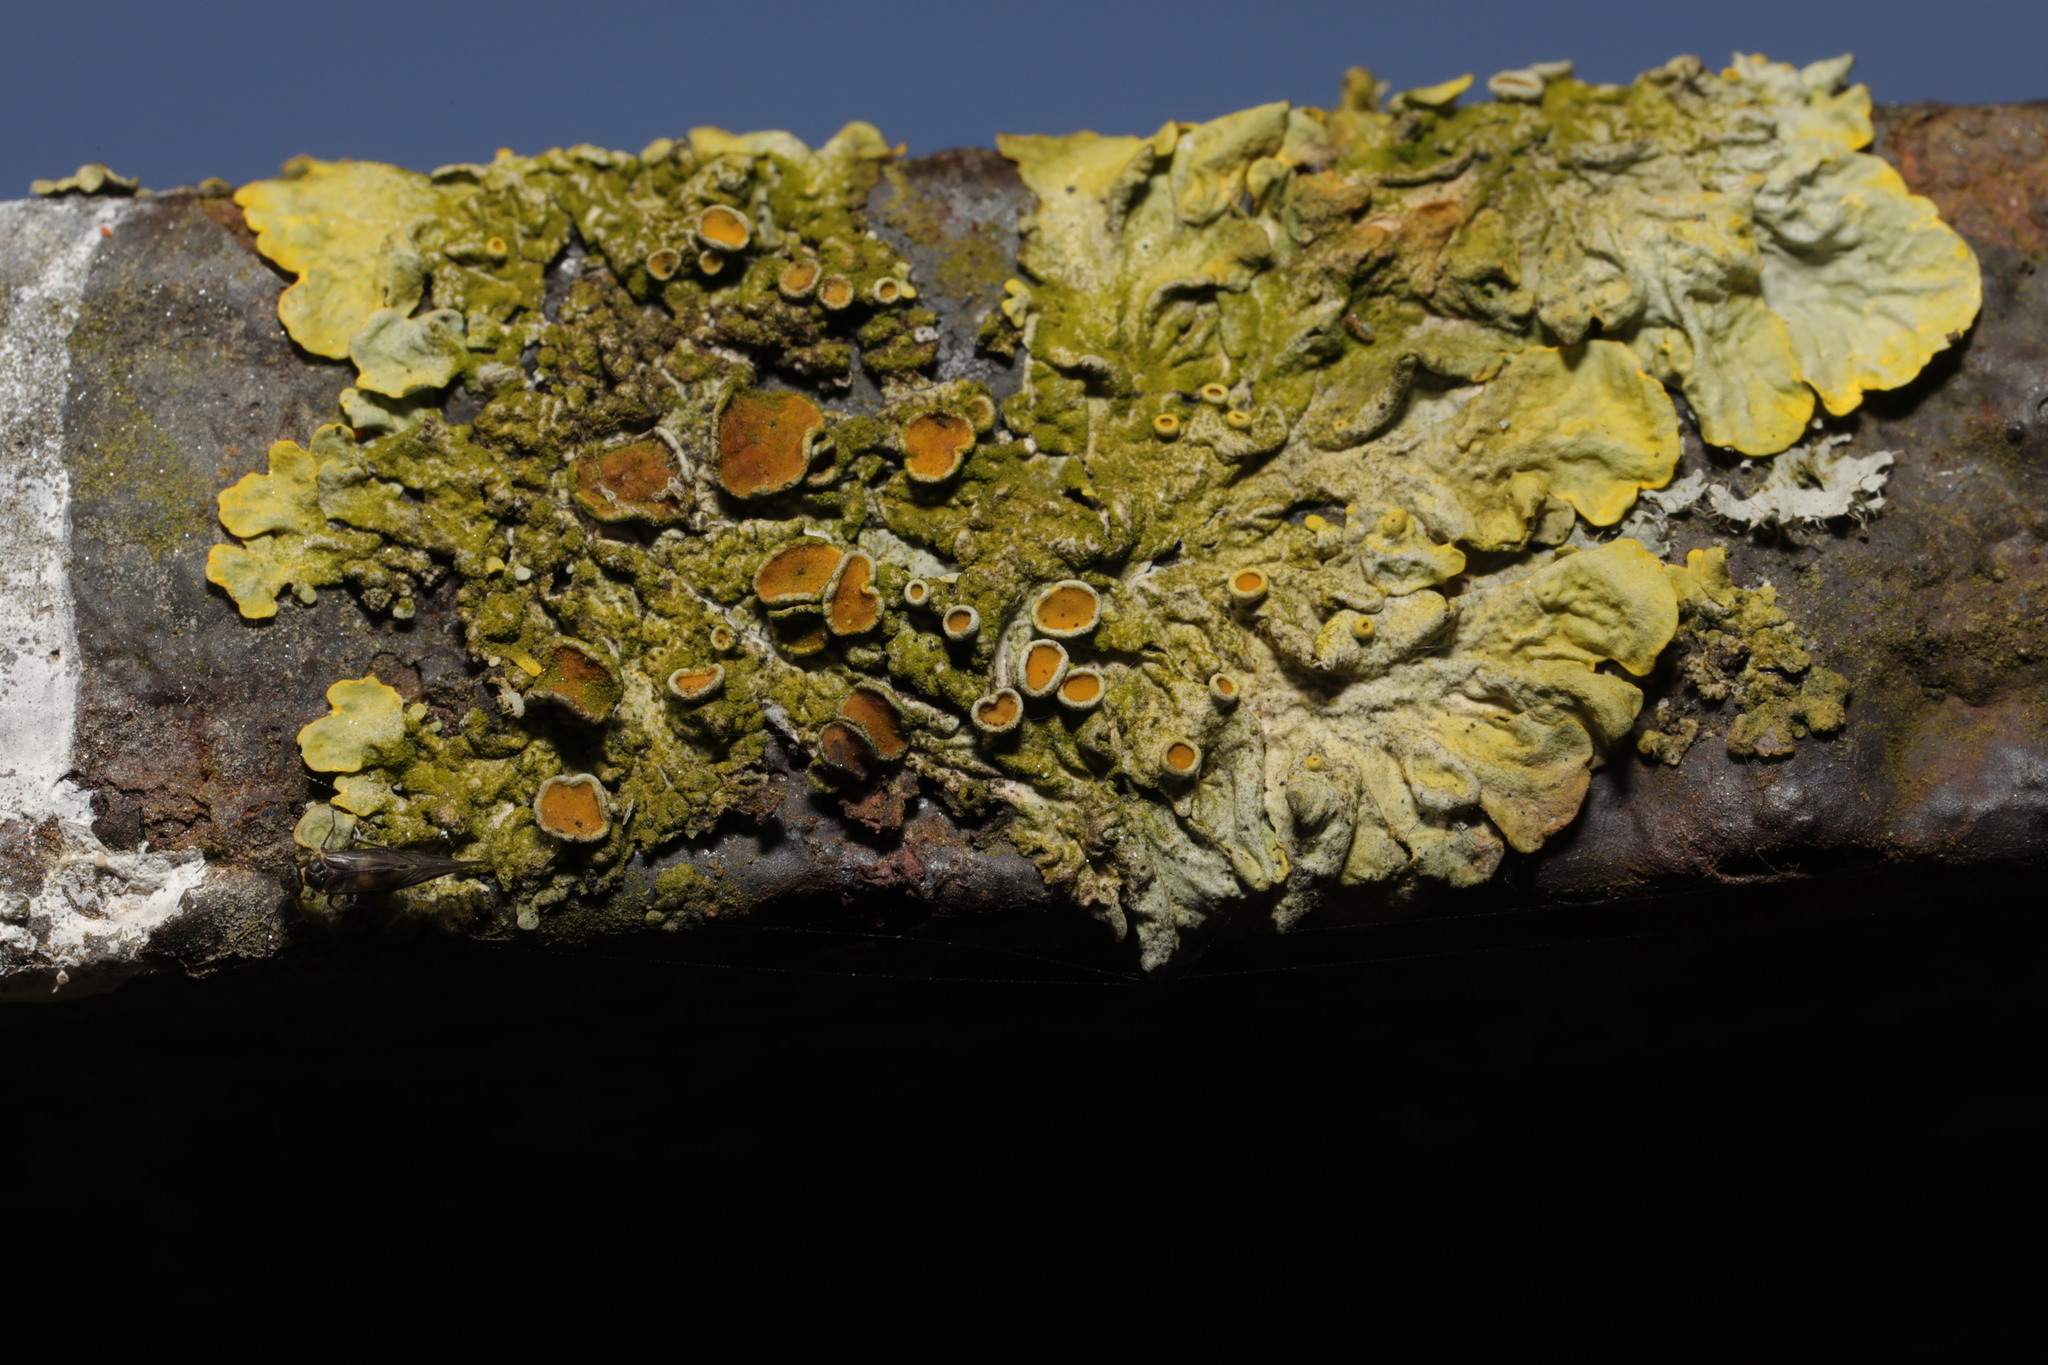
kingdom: Fungi
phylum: Ascomycota
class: Lecanoromycetes
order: Teloschistales
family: Teloschistaceae
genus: Xanthoria
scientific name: Xanthoria parietina
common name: Common orange lichen
